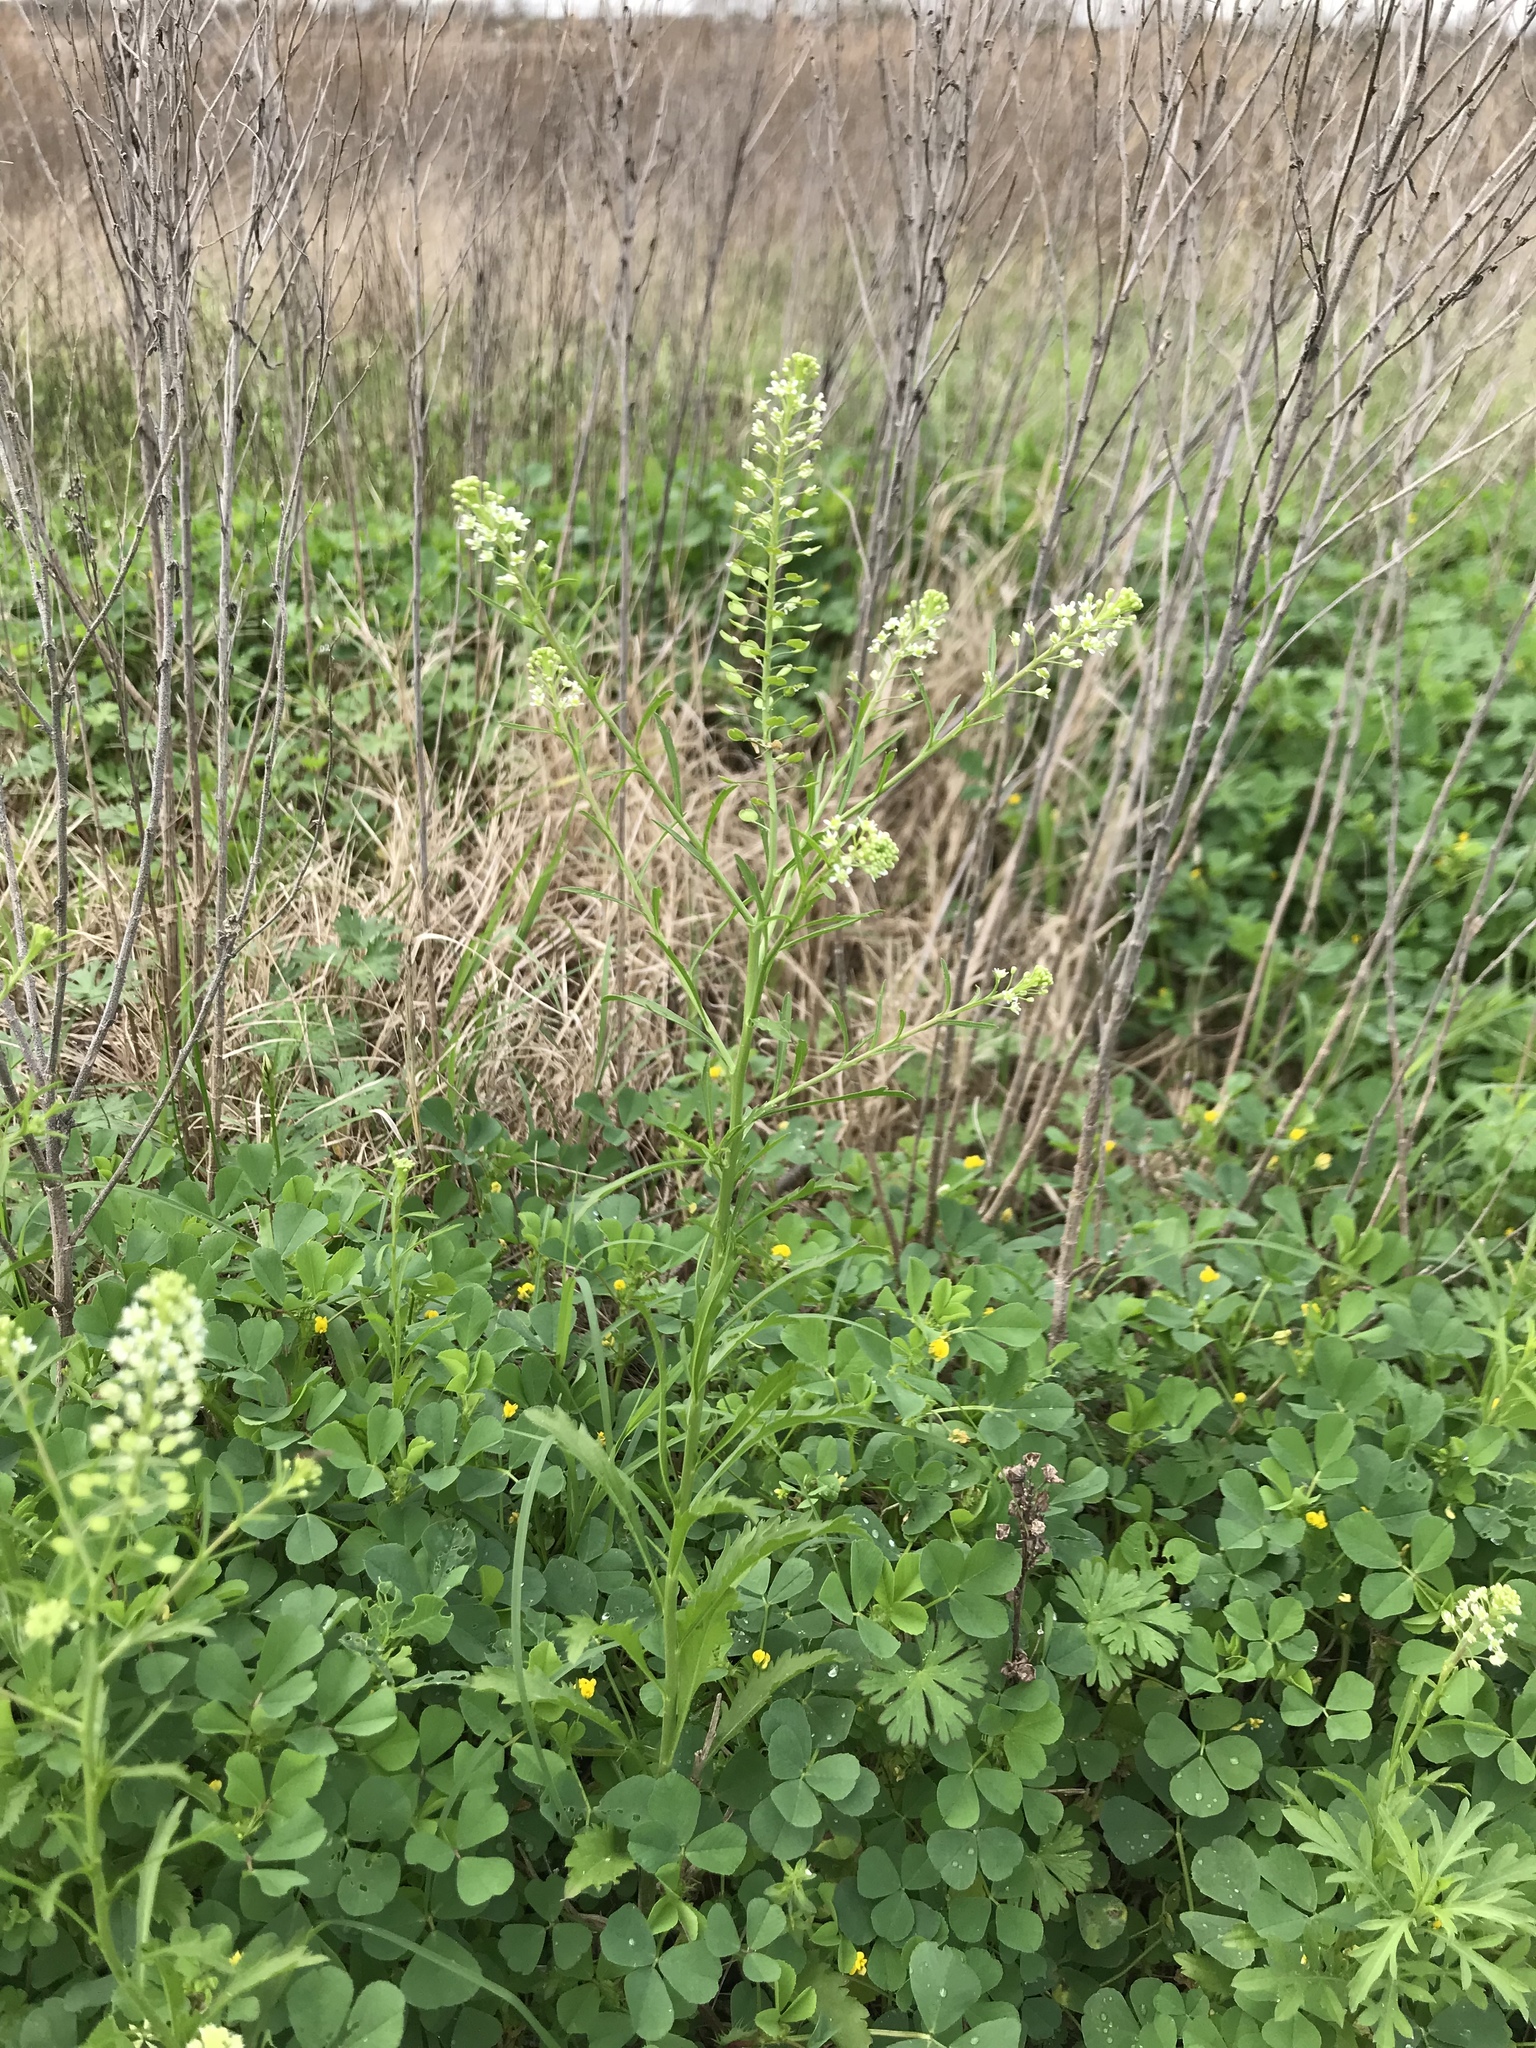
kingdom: Plantae
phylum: Tracheophyta
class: Magnoliopsida
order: Brassicales
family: Brassicaceae
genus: Lepidium
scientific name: Lepidium virginicum
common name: Least pepperwort
